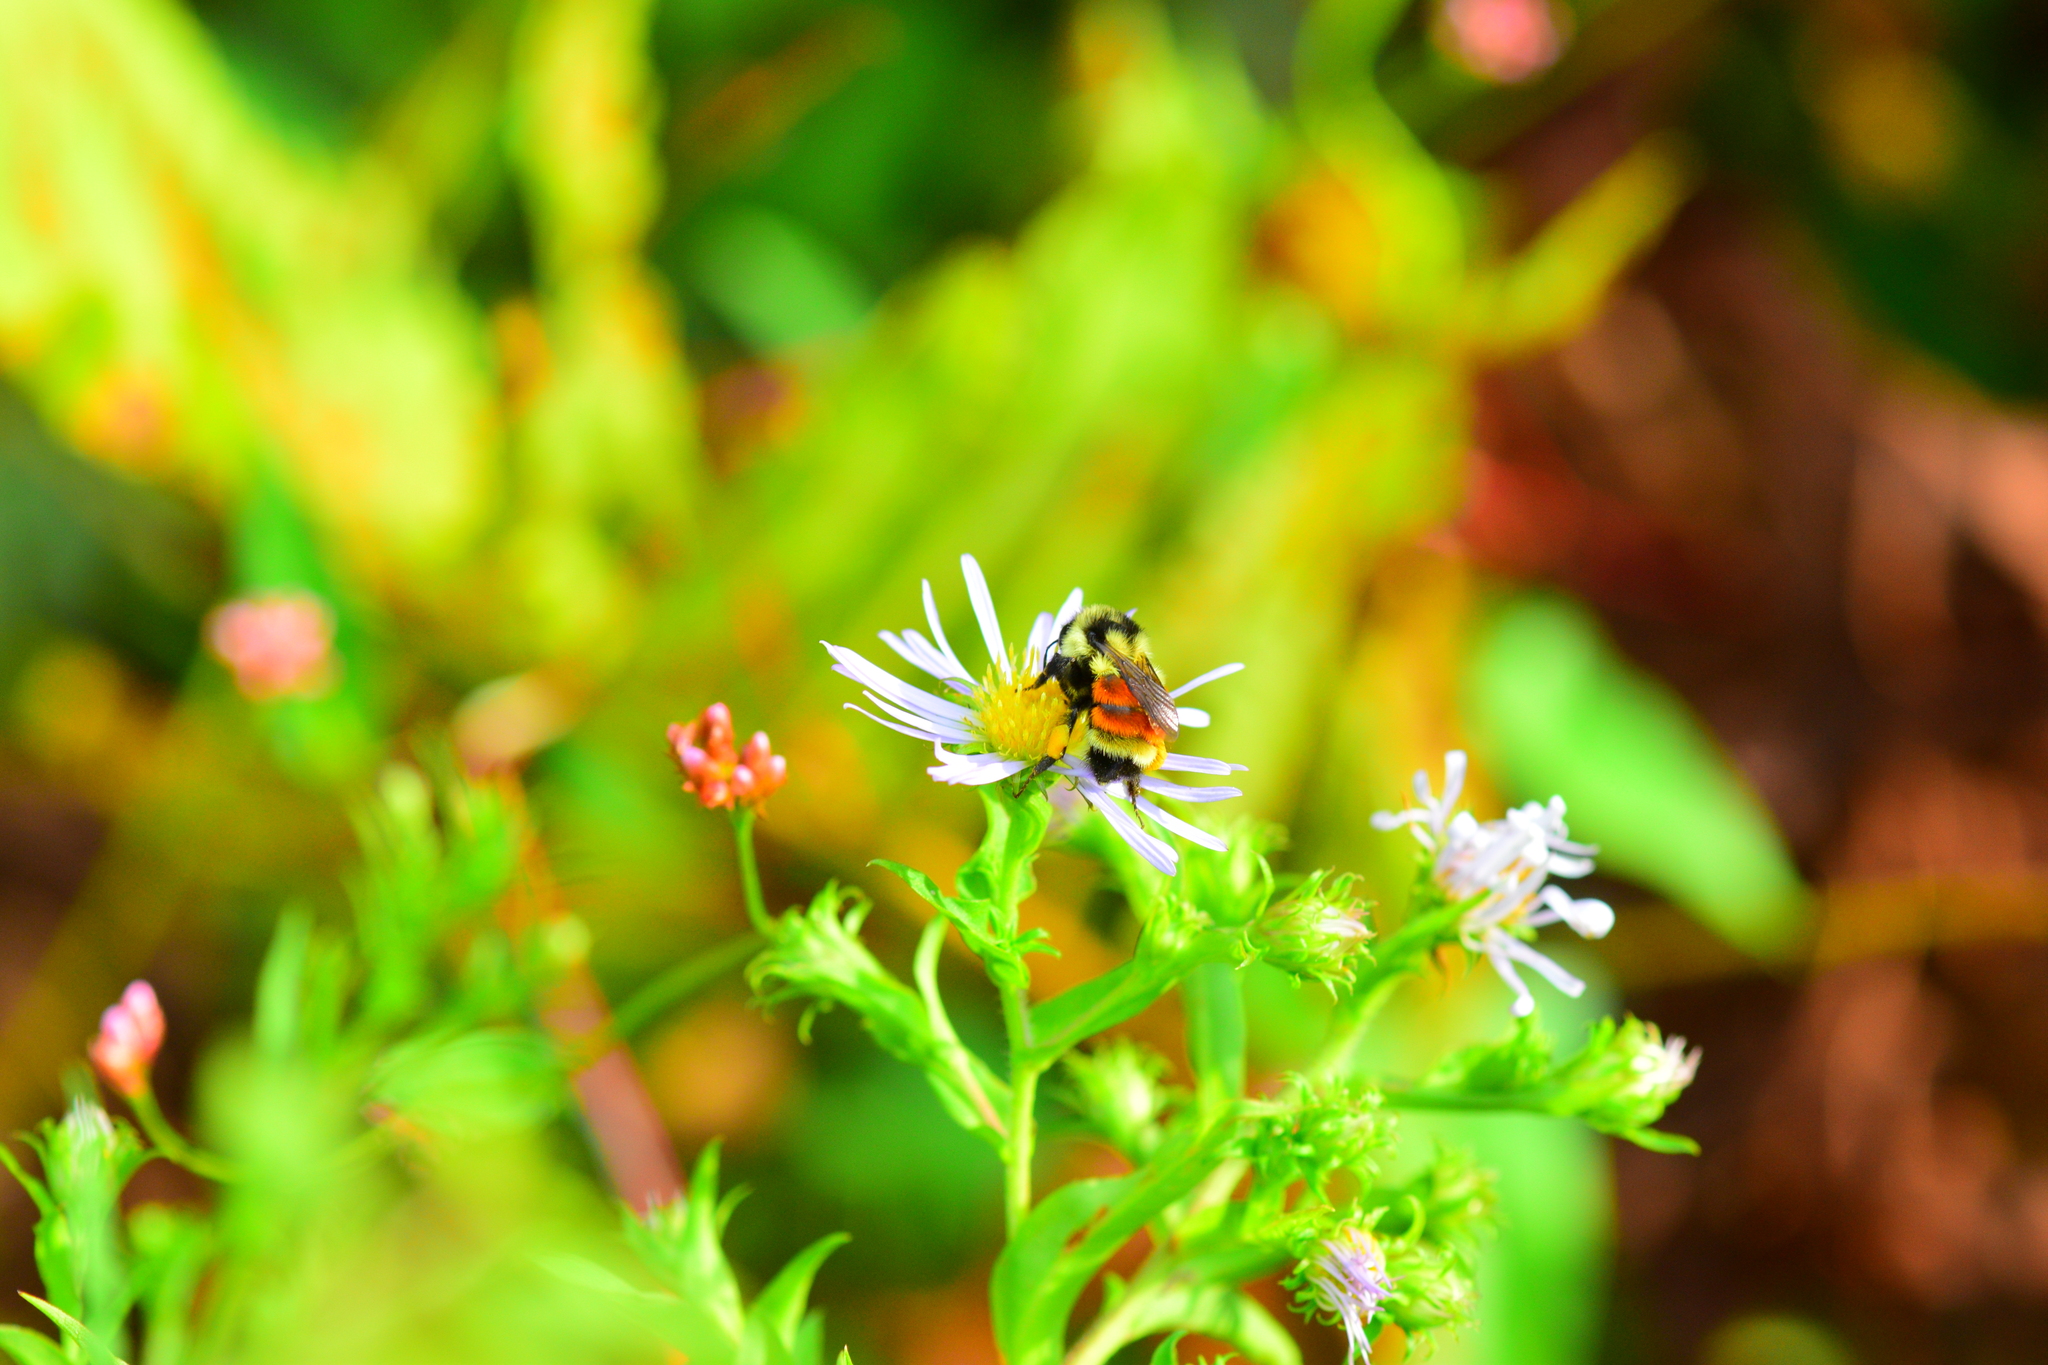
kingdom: Animalia
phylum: Arthropoda
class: Insecta
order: Hymenoptera
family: Apidae
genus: Bombus
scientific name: Bombus ternarius
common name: Tri-colored bumble bee
